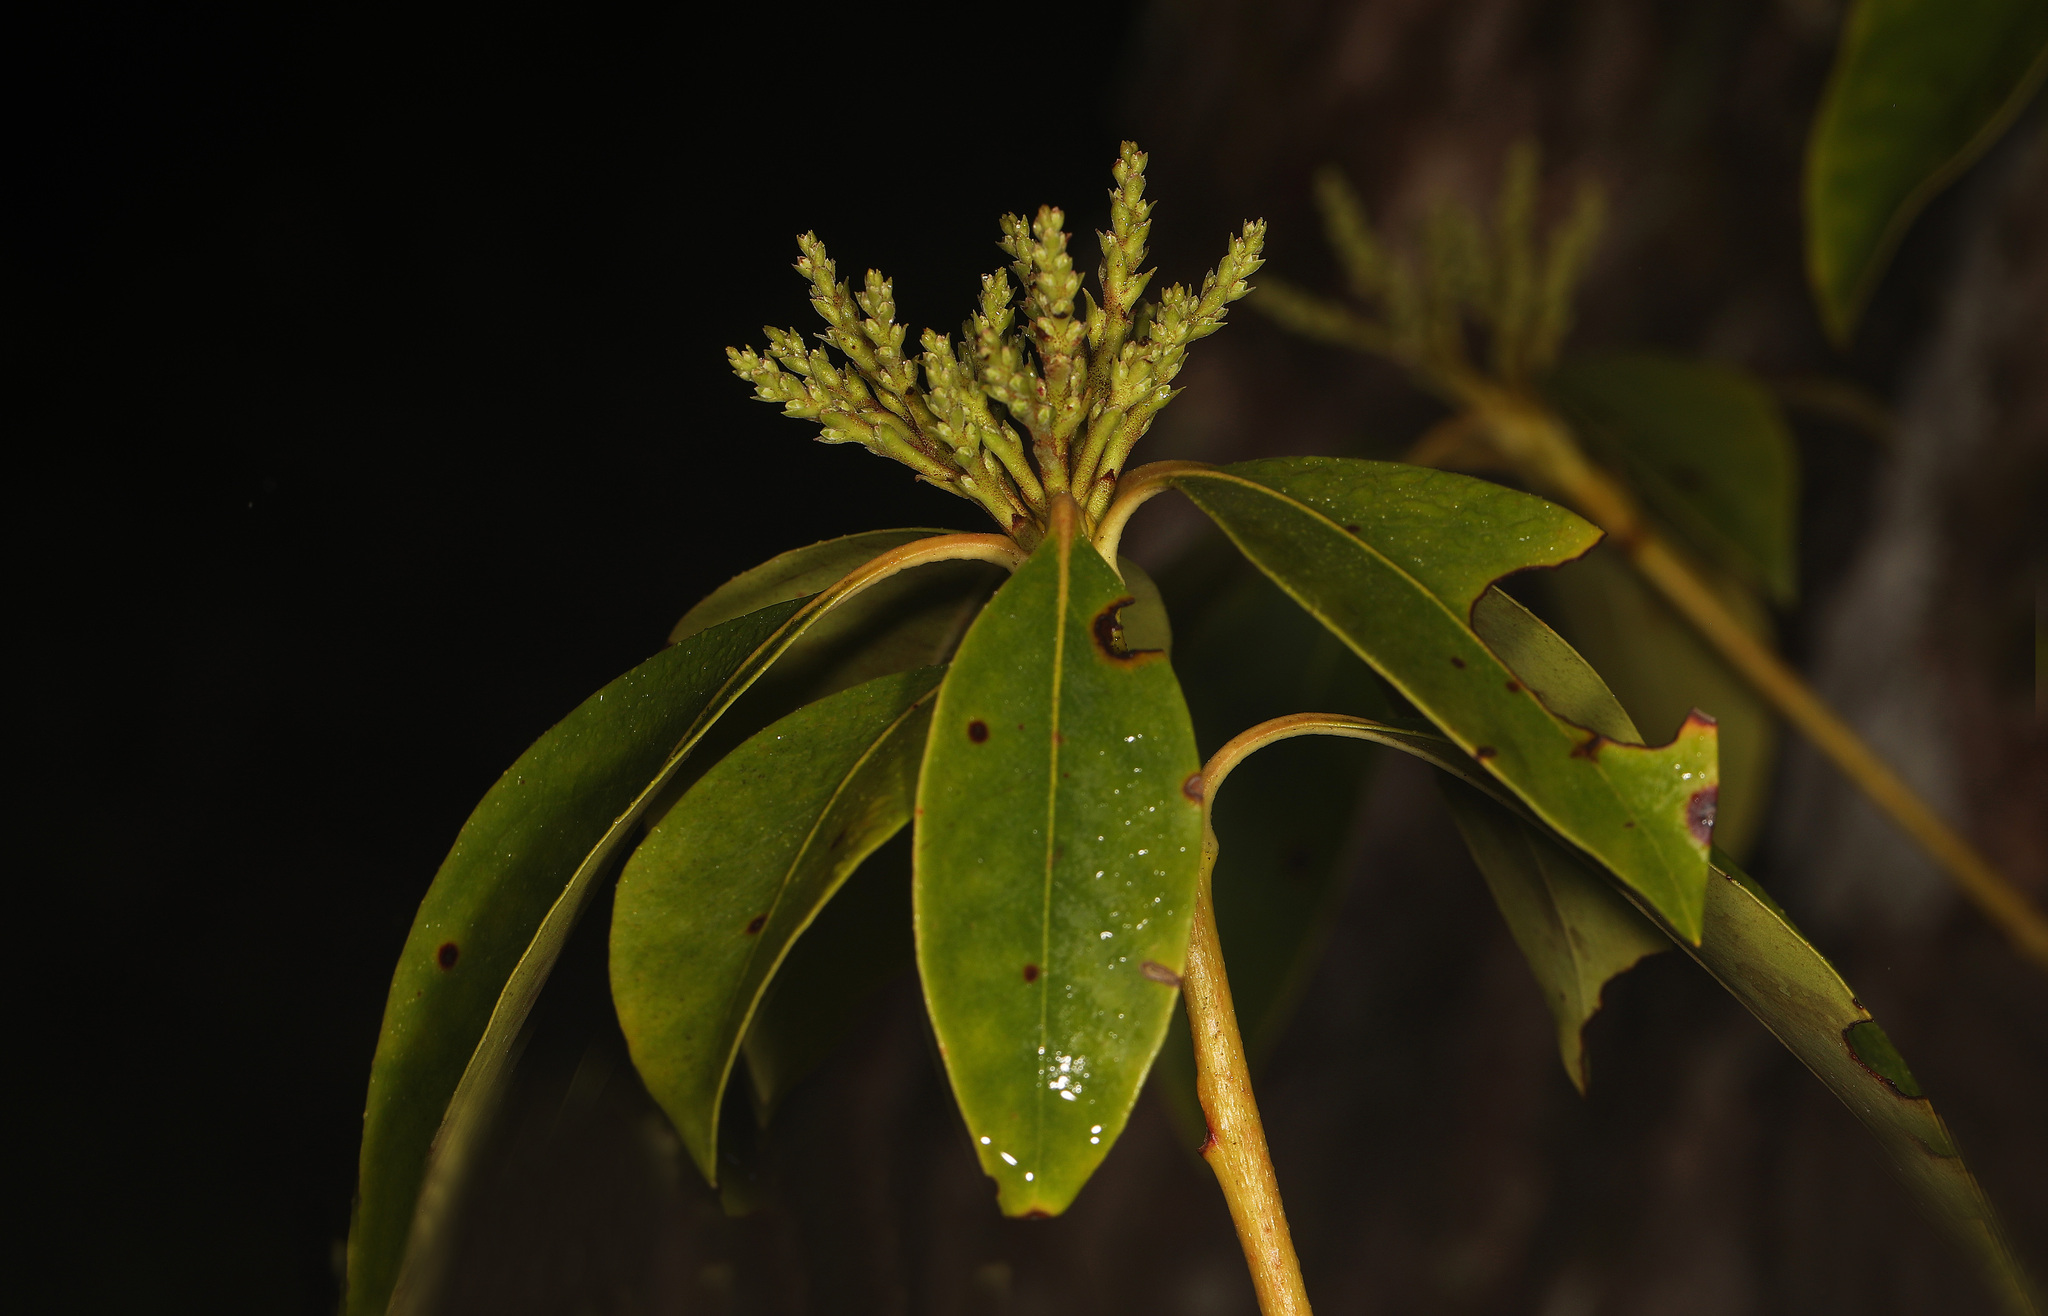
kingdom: Plantae
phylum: Tracheophyta
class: Magnoliopsida
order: Ericales
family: Ericaceae
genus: Kalmia
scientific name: Kalmia latifolia
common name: Mountain-laurel
